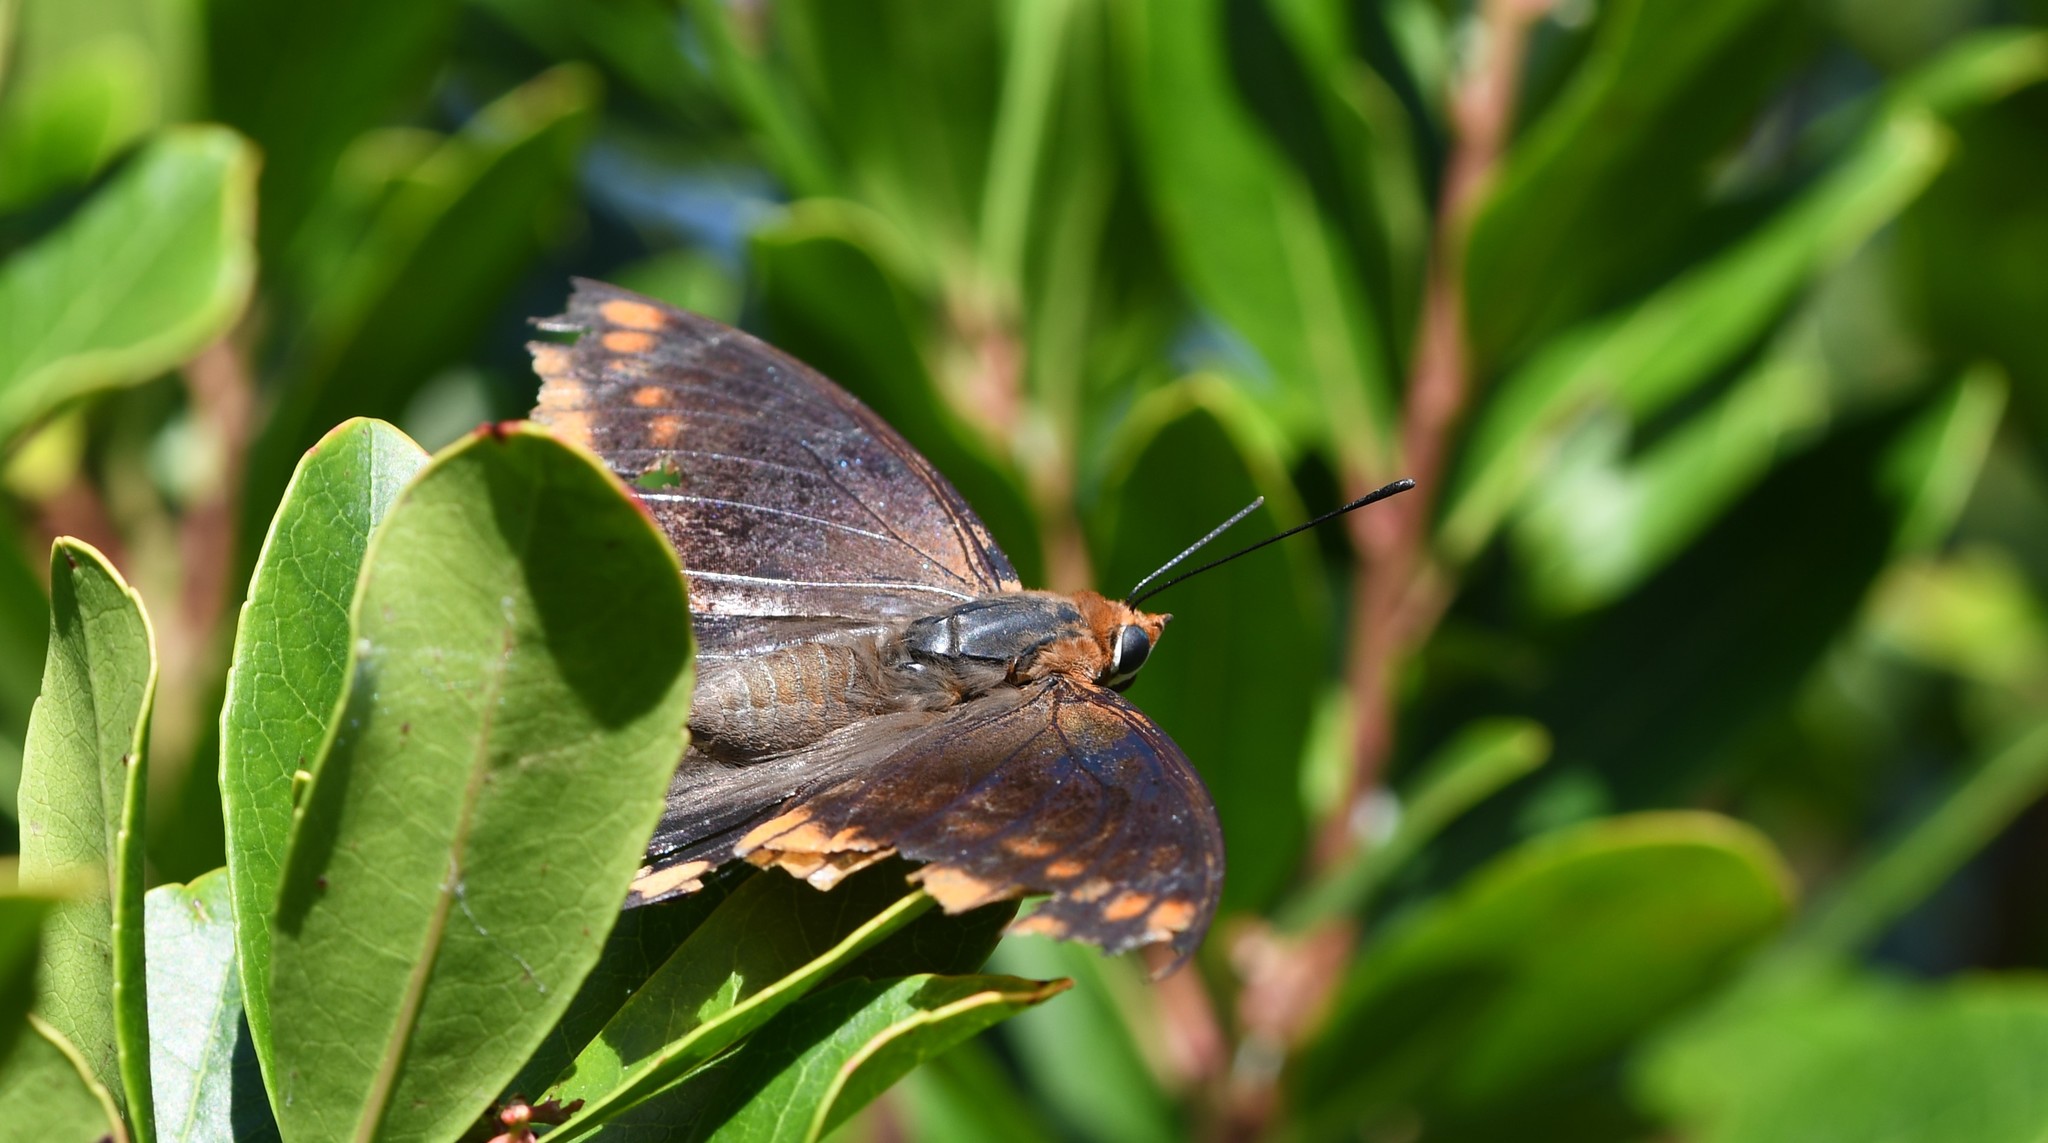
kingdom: Animalia
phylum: Arthropoda
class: Insecta
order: Lepidoptera
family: Nymphalidae
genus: Charaxes
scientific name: Charaxes jasius
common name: Two tailed pasha
